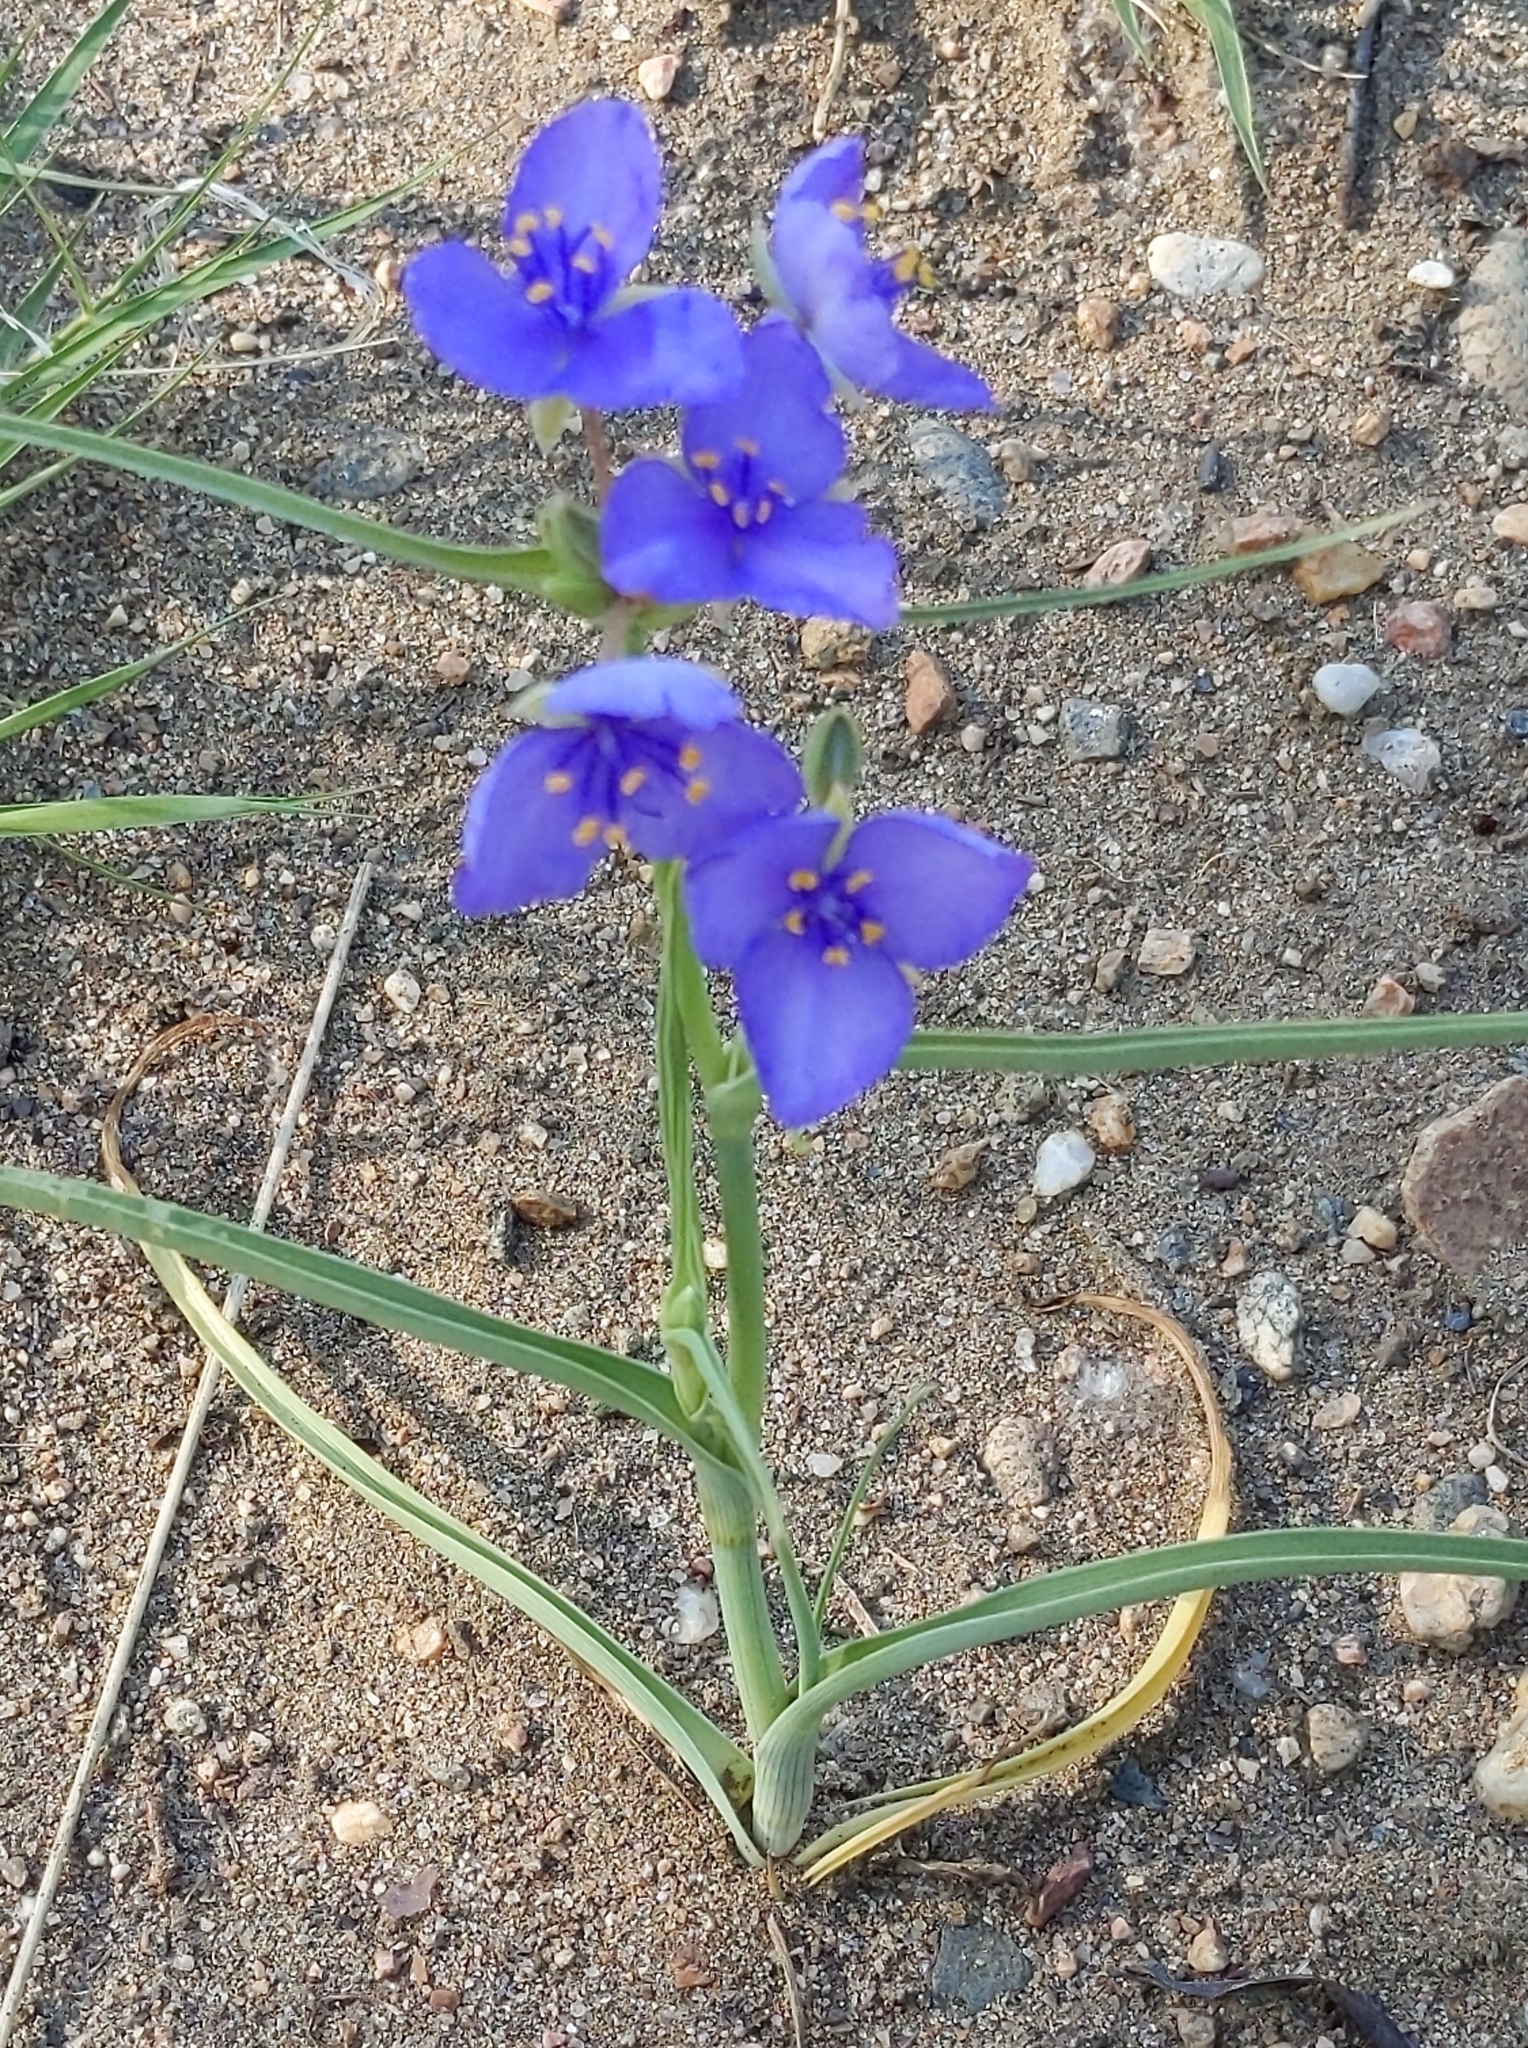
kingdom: Plantae
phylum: Tracheophyta
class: Liliopsida
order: Commelinales
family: Commelinaceae
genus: Tradescantia
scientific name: Tradescantia occidentalis
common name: Prairie spiderwort
